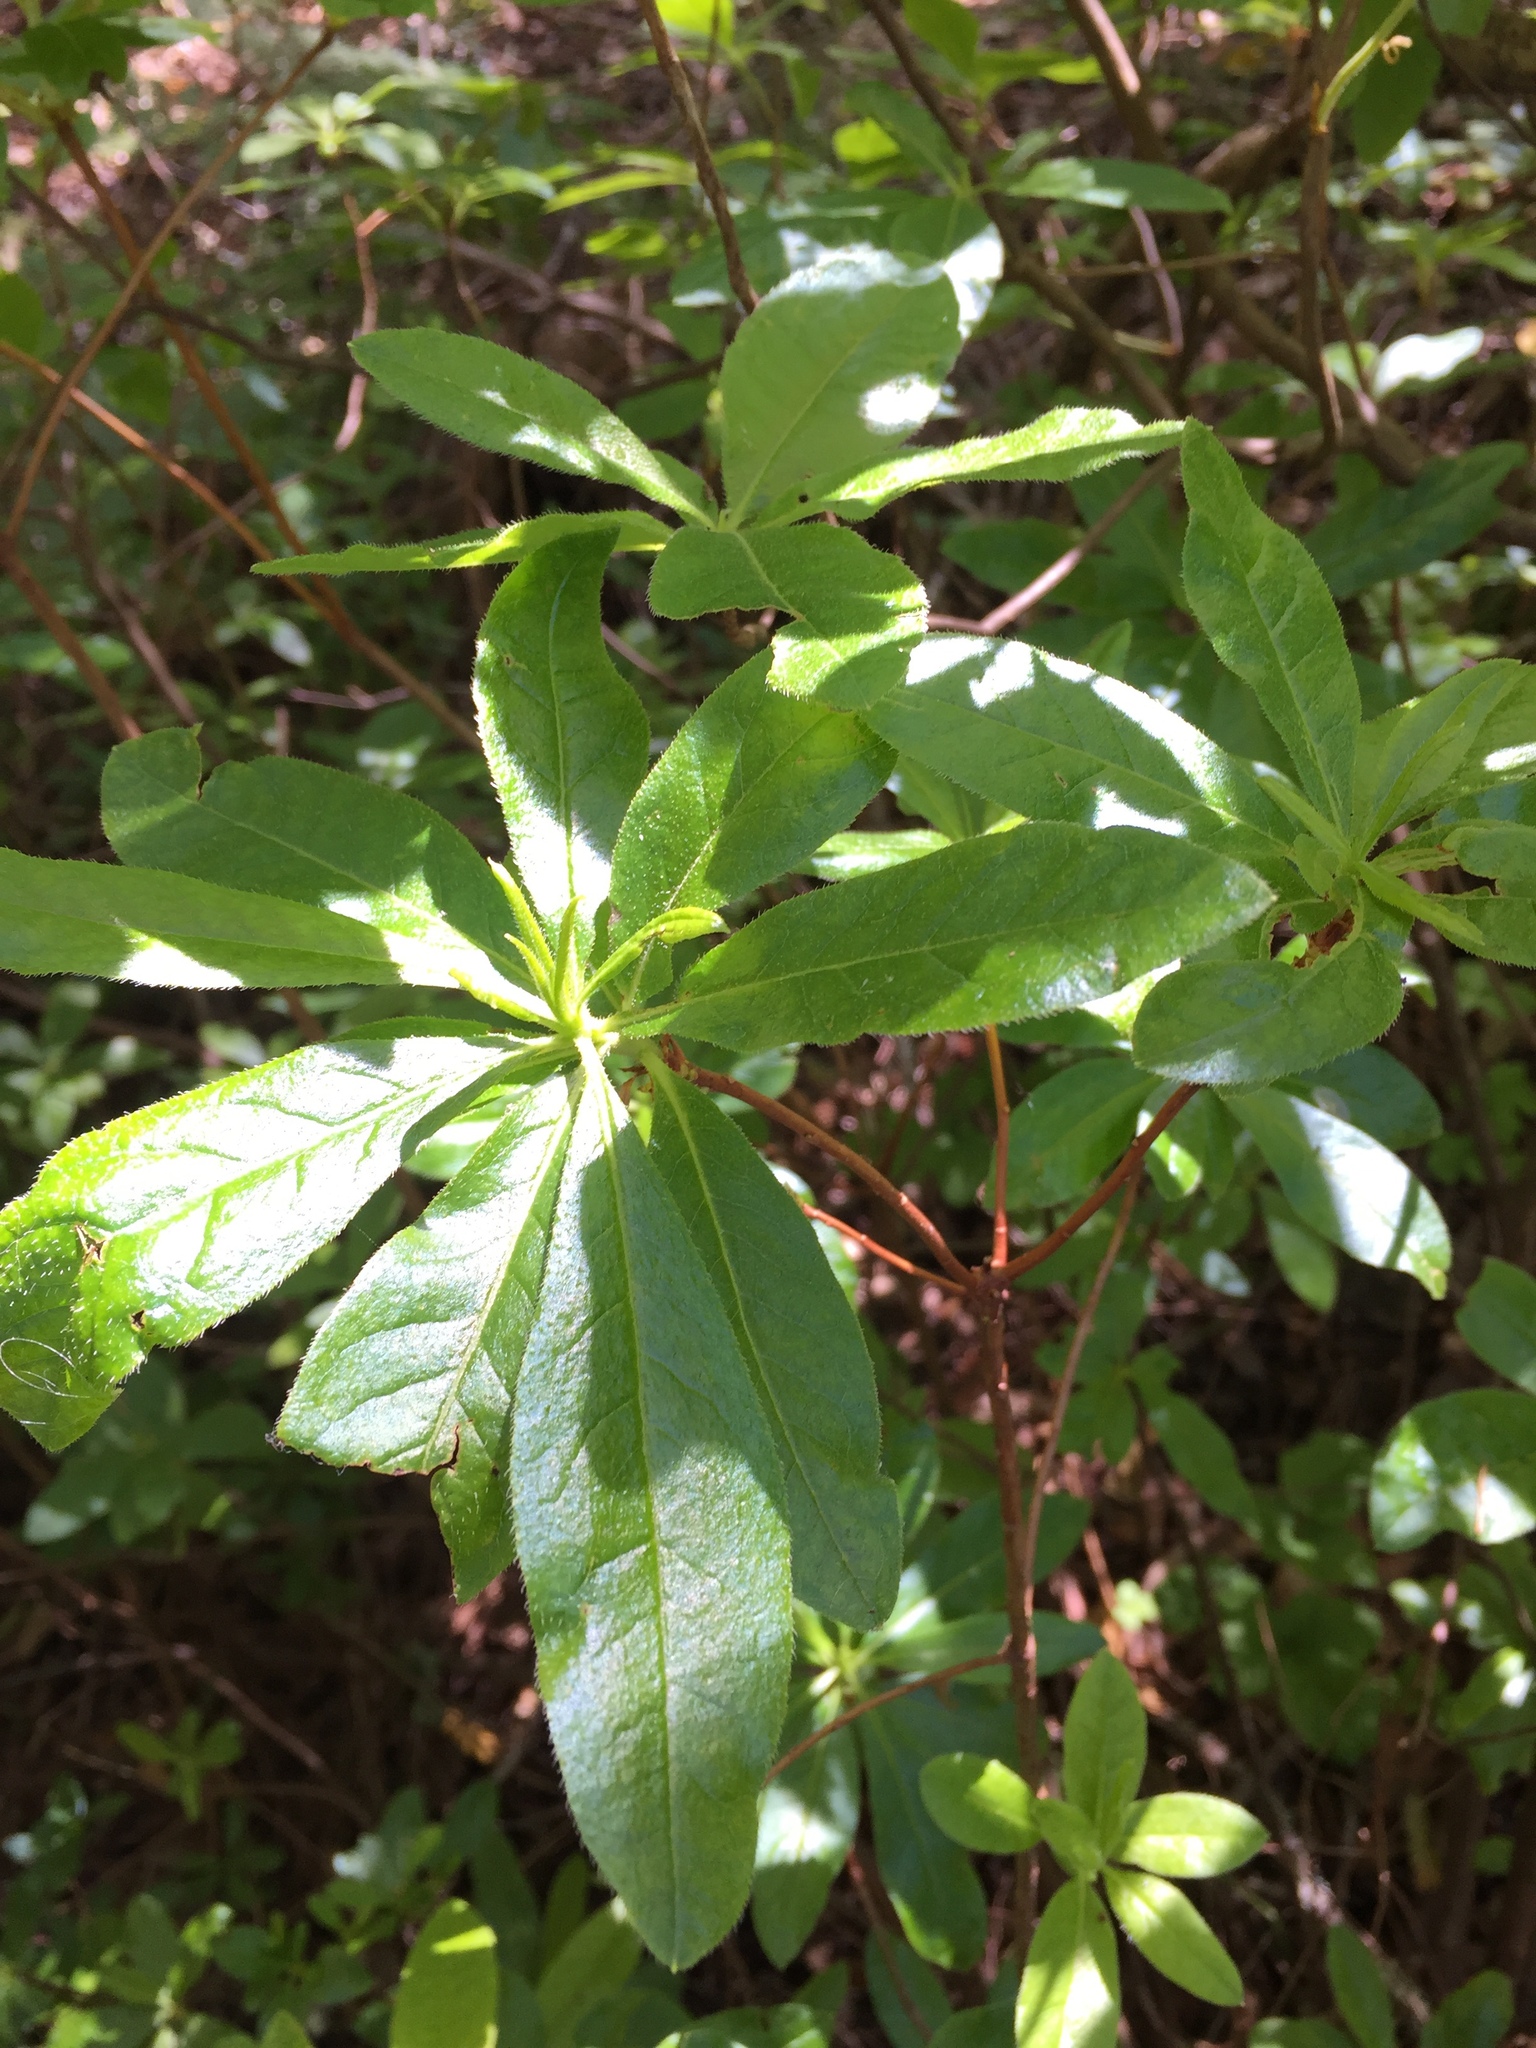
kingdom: Plantae
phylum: Tracheophyta
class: Magnoliopsida
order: Ericales
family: Ericaceae
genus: Rhododendron
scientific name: Rhododendron occidentale
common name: Western azalea
